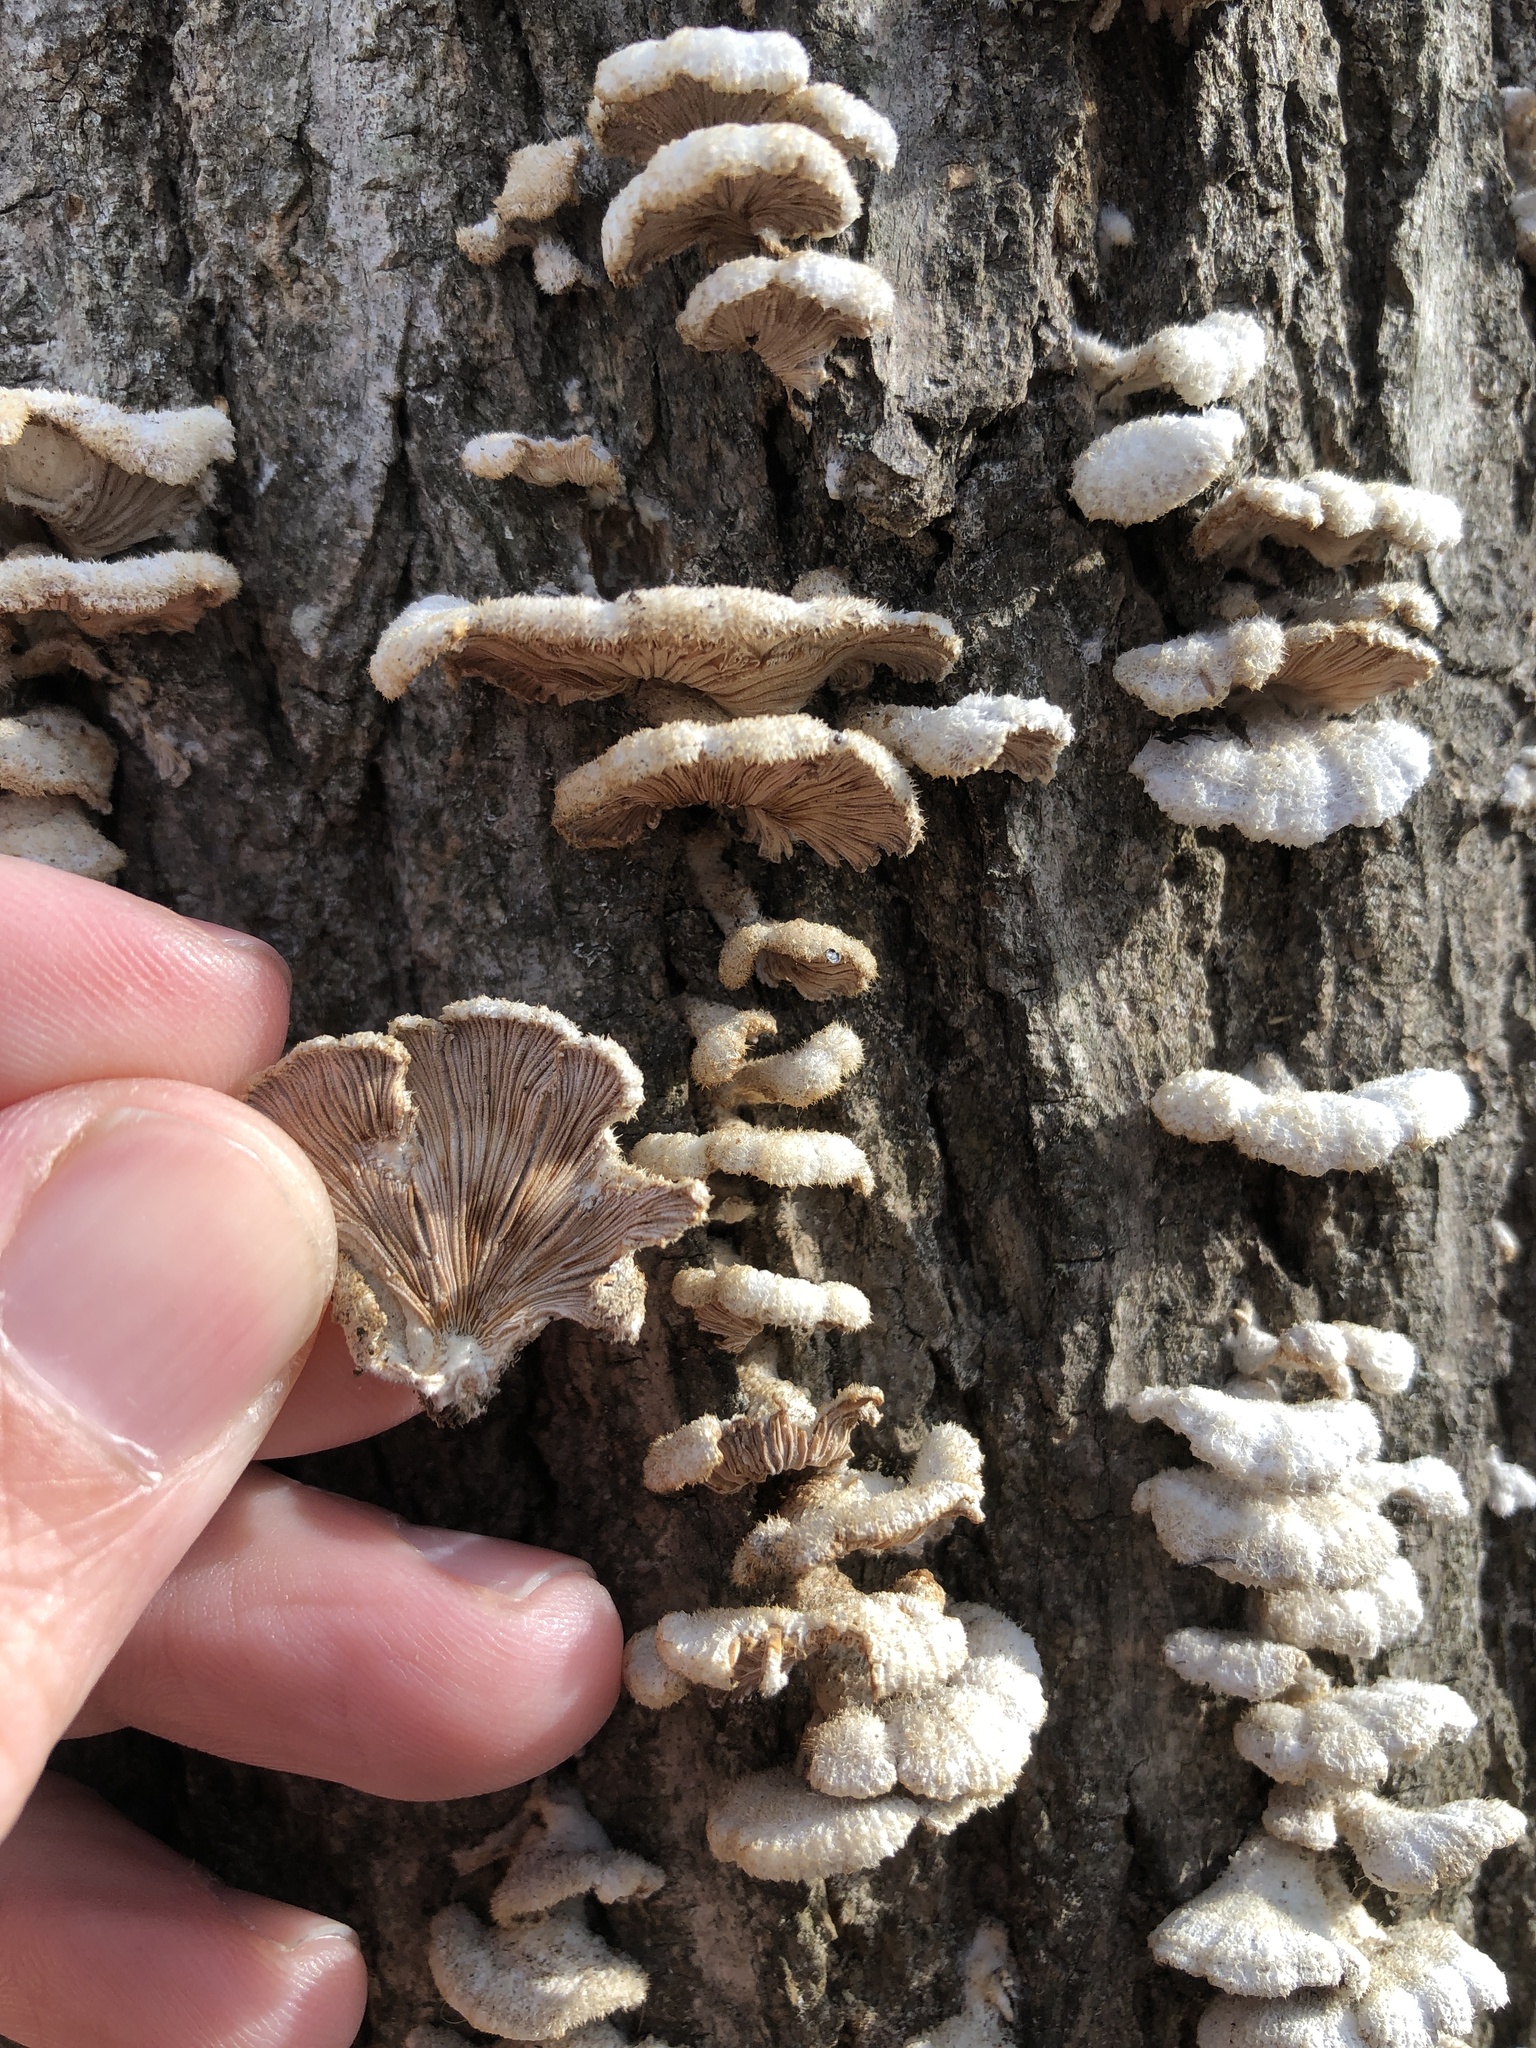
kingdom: Fungi
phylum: Basidiomycota
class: Agaricomycetes
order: Agaricales
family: Schizophyllaceae
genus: Schizophyllum
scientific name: Schizophyllum commune
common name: Common porecrust
